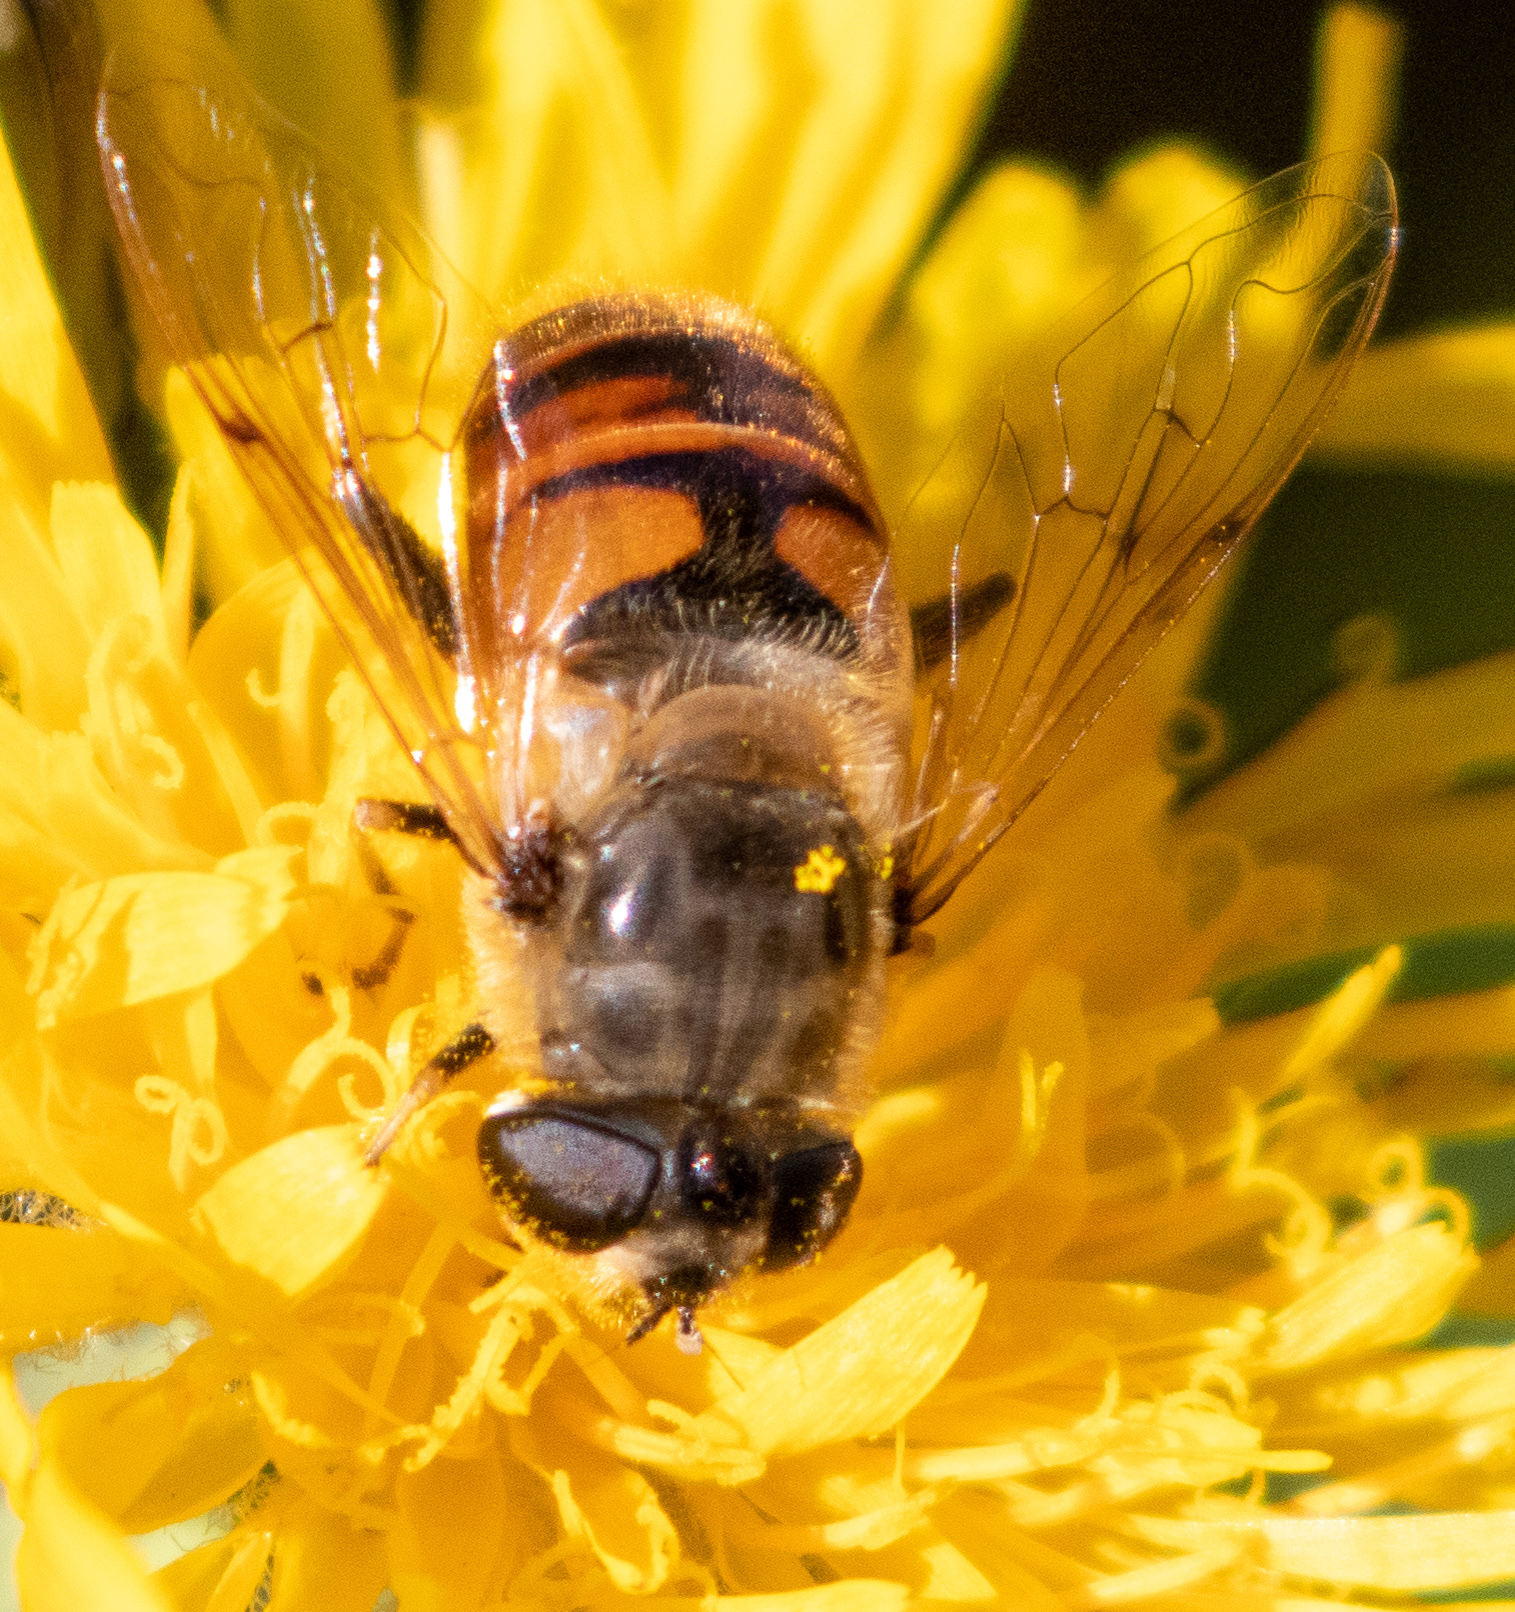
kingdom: Animalia
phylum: Arthropoda
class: Insecta
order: Diptera
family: Syrphidae
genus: Eristalis
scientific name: Eristalis tenax
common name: Drone fly
